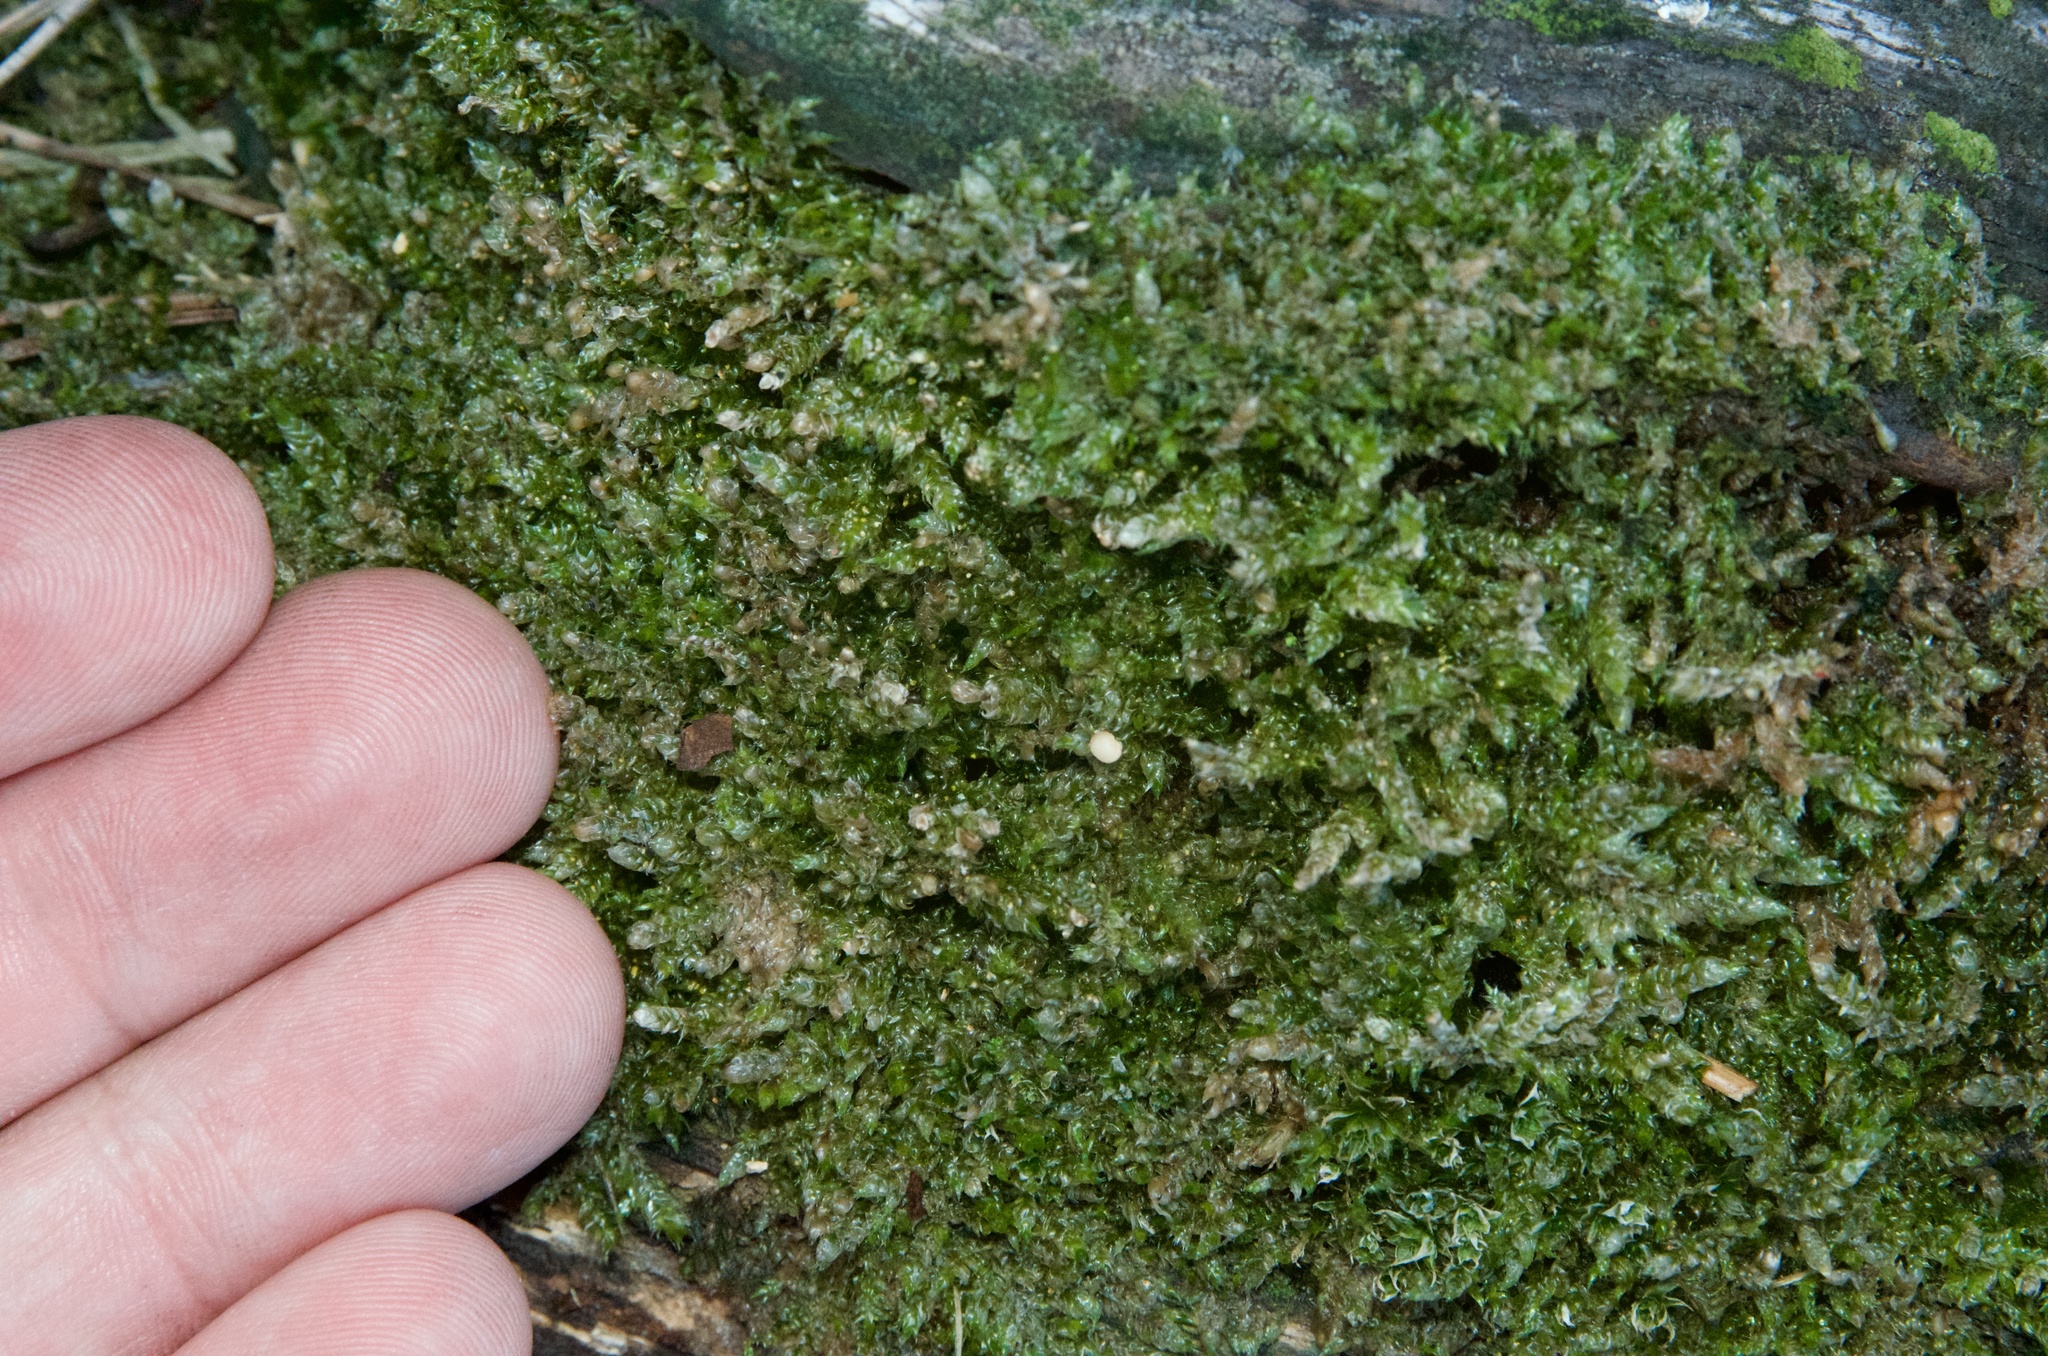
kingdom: Plantae
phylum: Bryophyta
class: Bryopsida
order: Hypnales
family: Hypnaceae
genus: Hypnum
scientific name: Hypnum cupressiforme
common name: Cypress-leaved plait-moss
